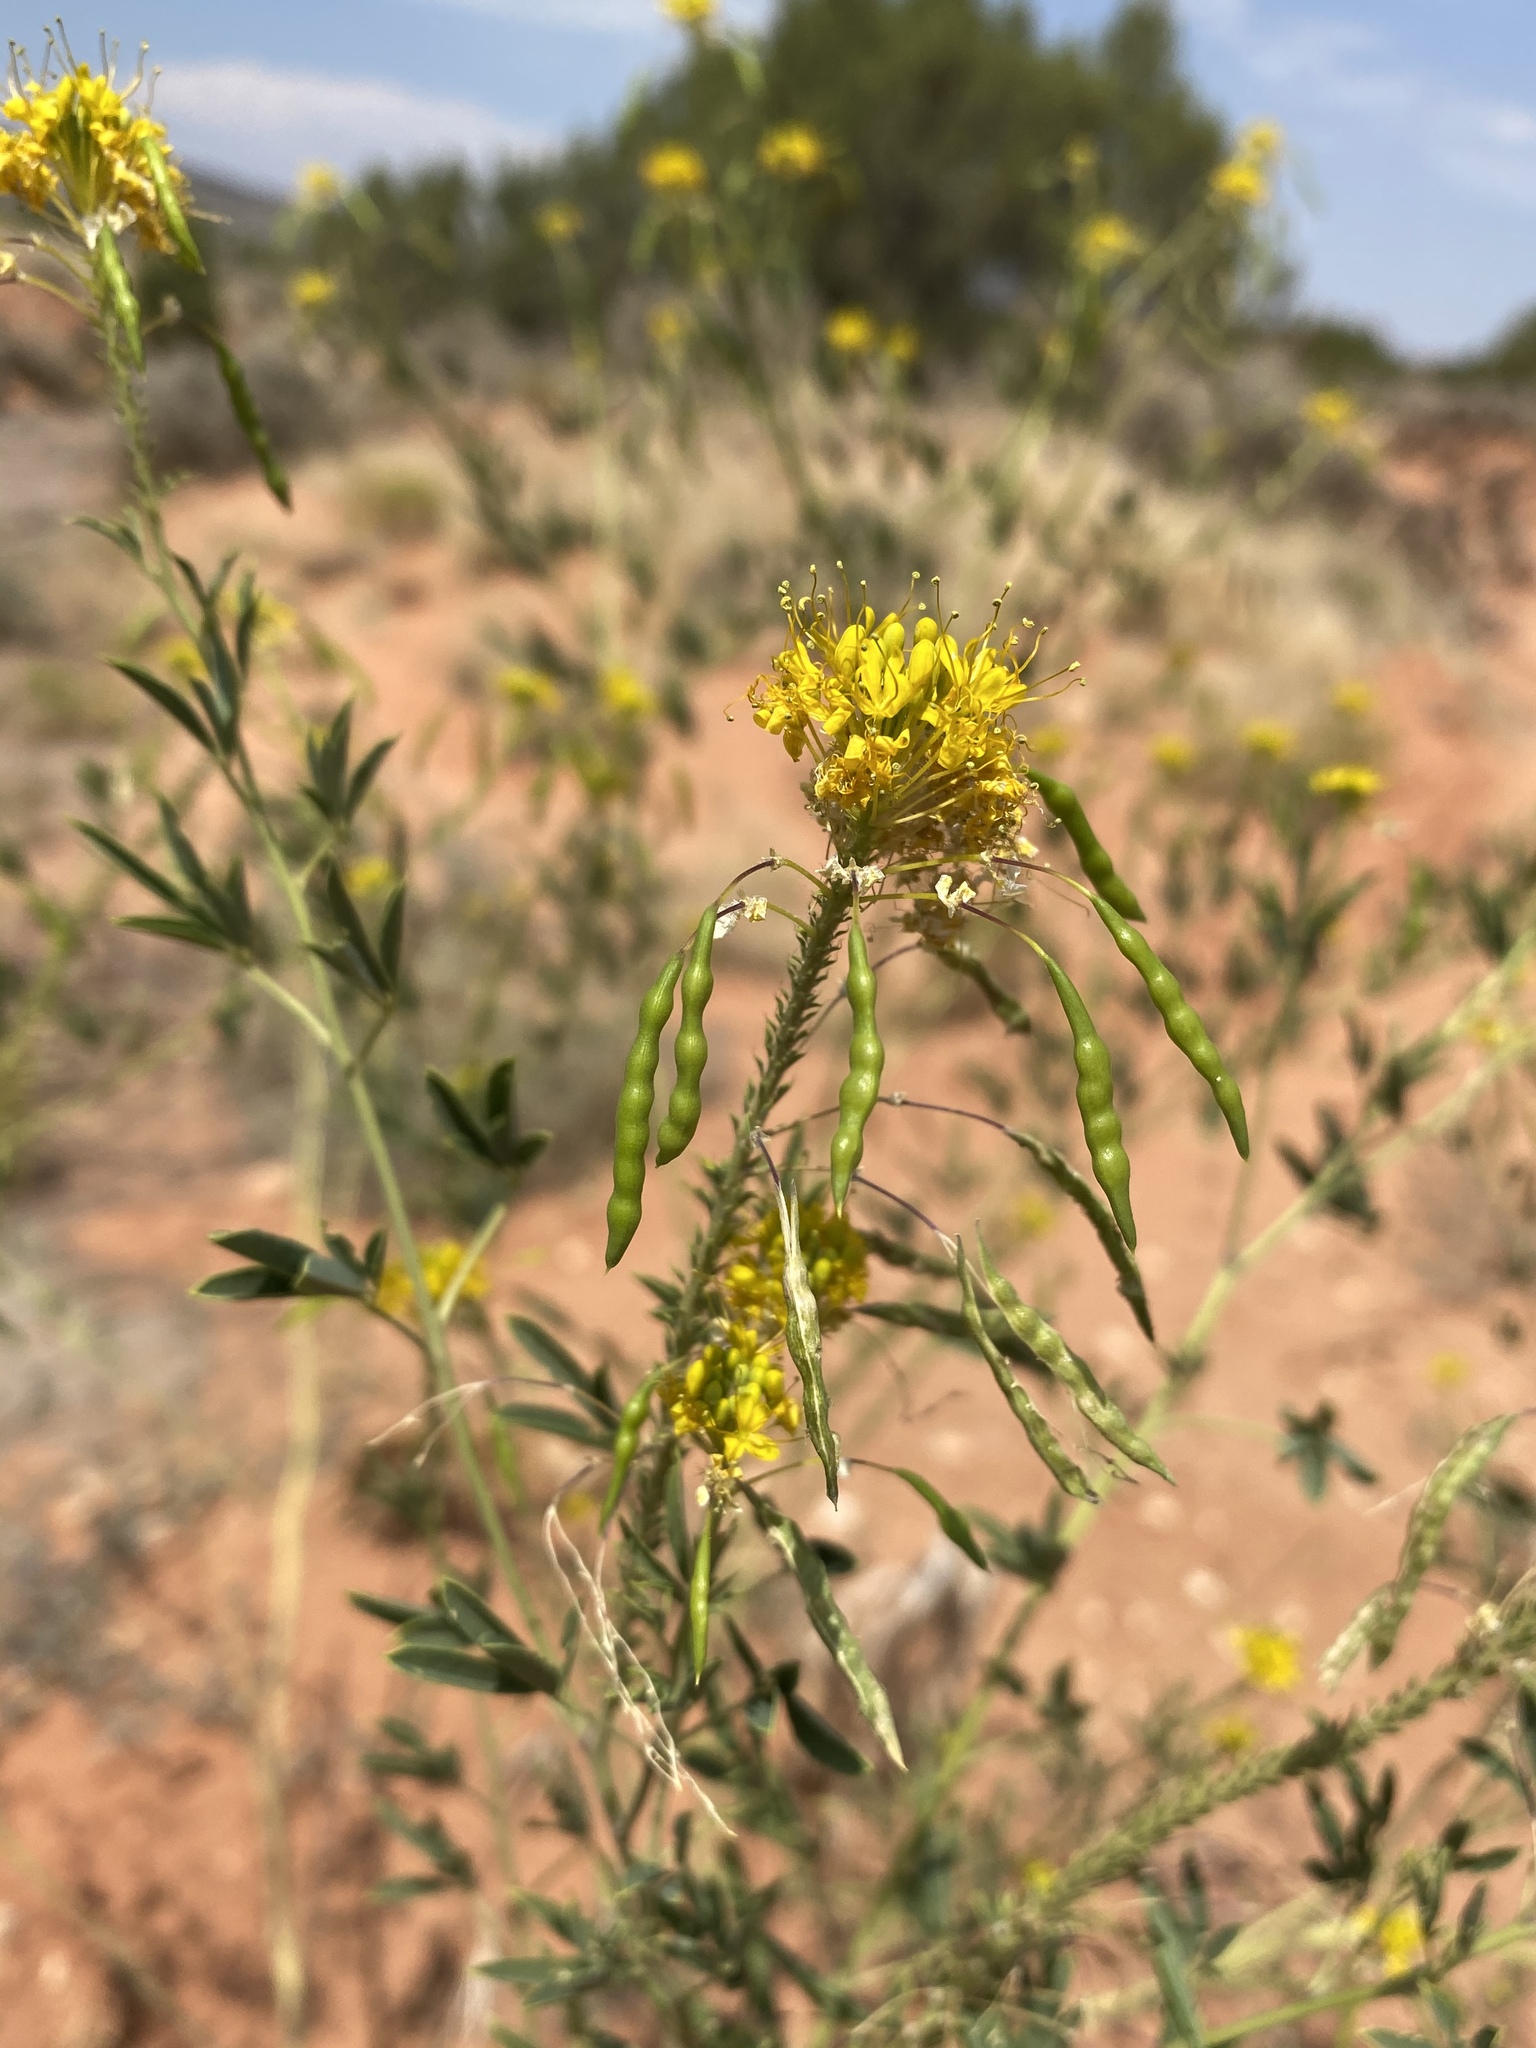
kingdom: Plantae
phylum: Tracheophyta
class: Magnoliopsida
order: Brassicales
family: Cleomaceae
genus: Cleomella
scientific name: Cleomella lutea
